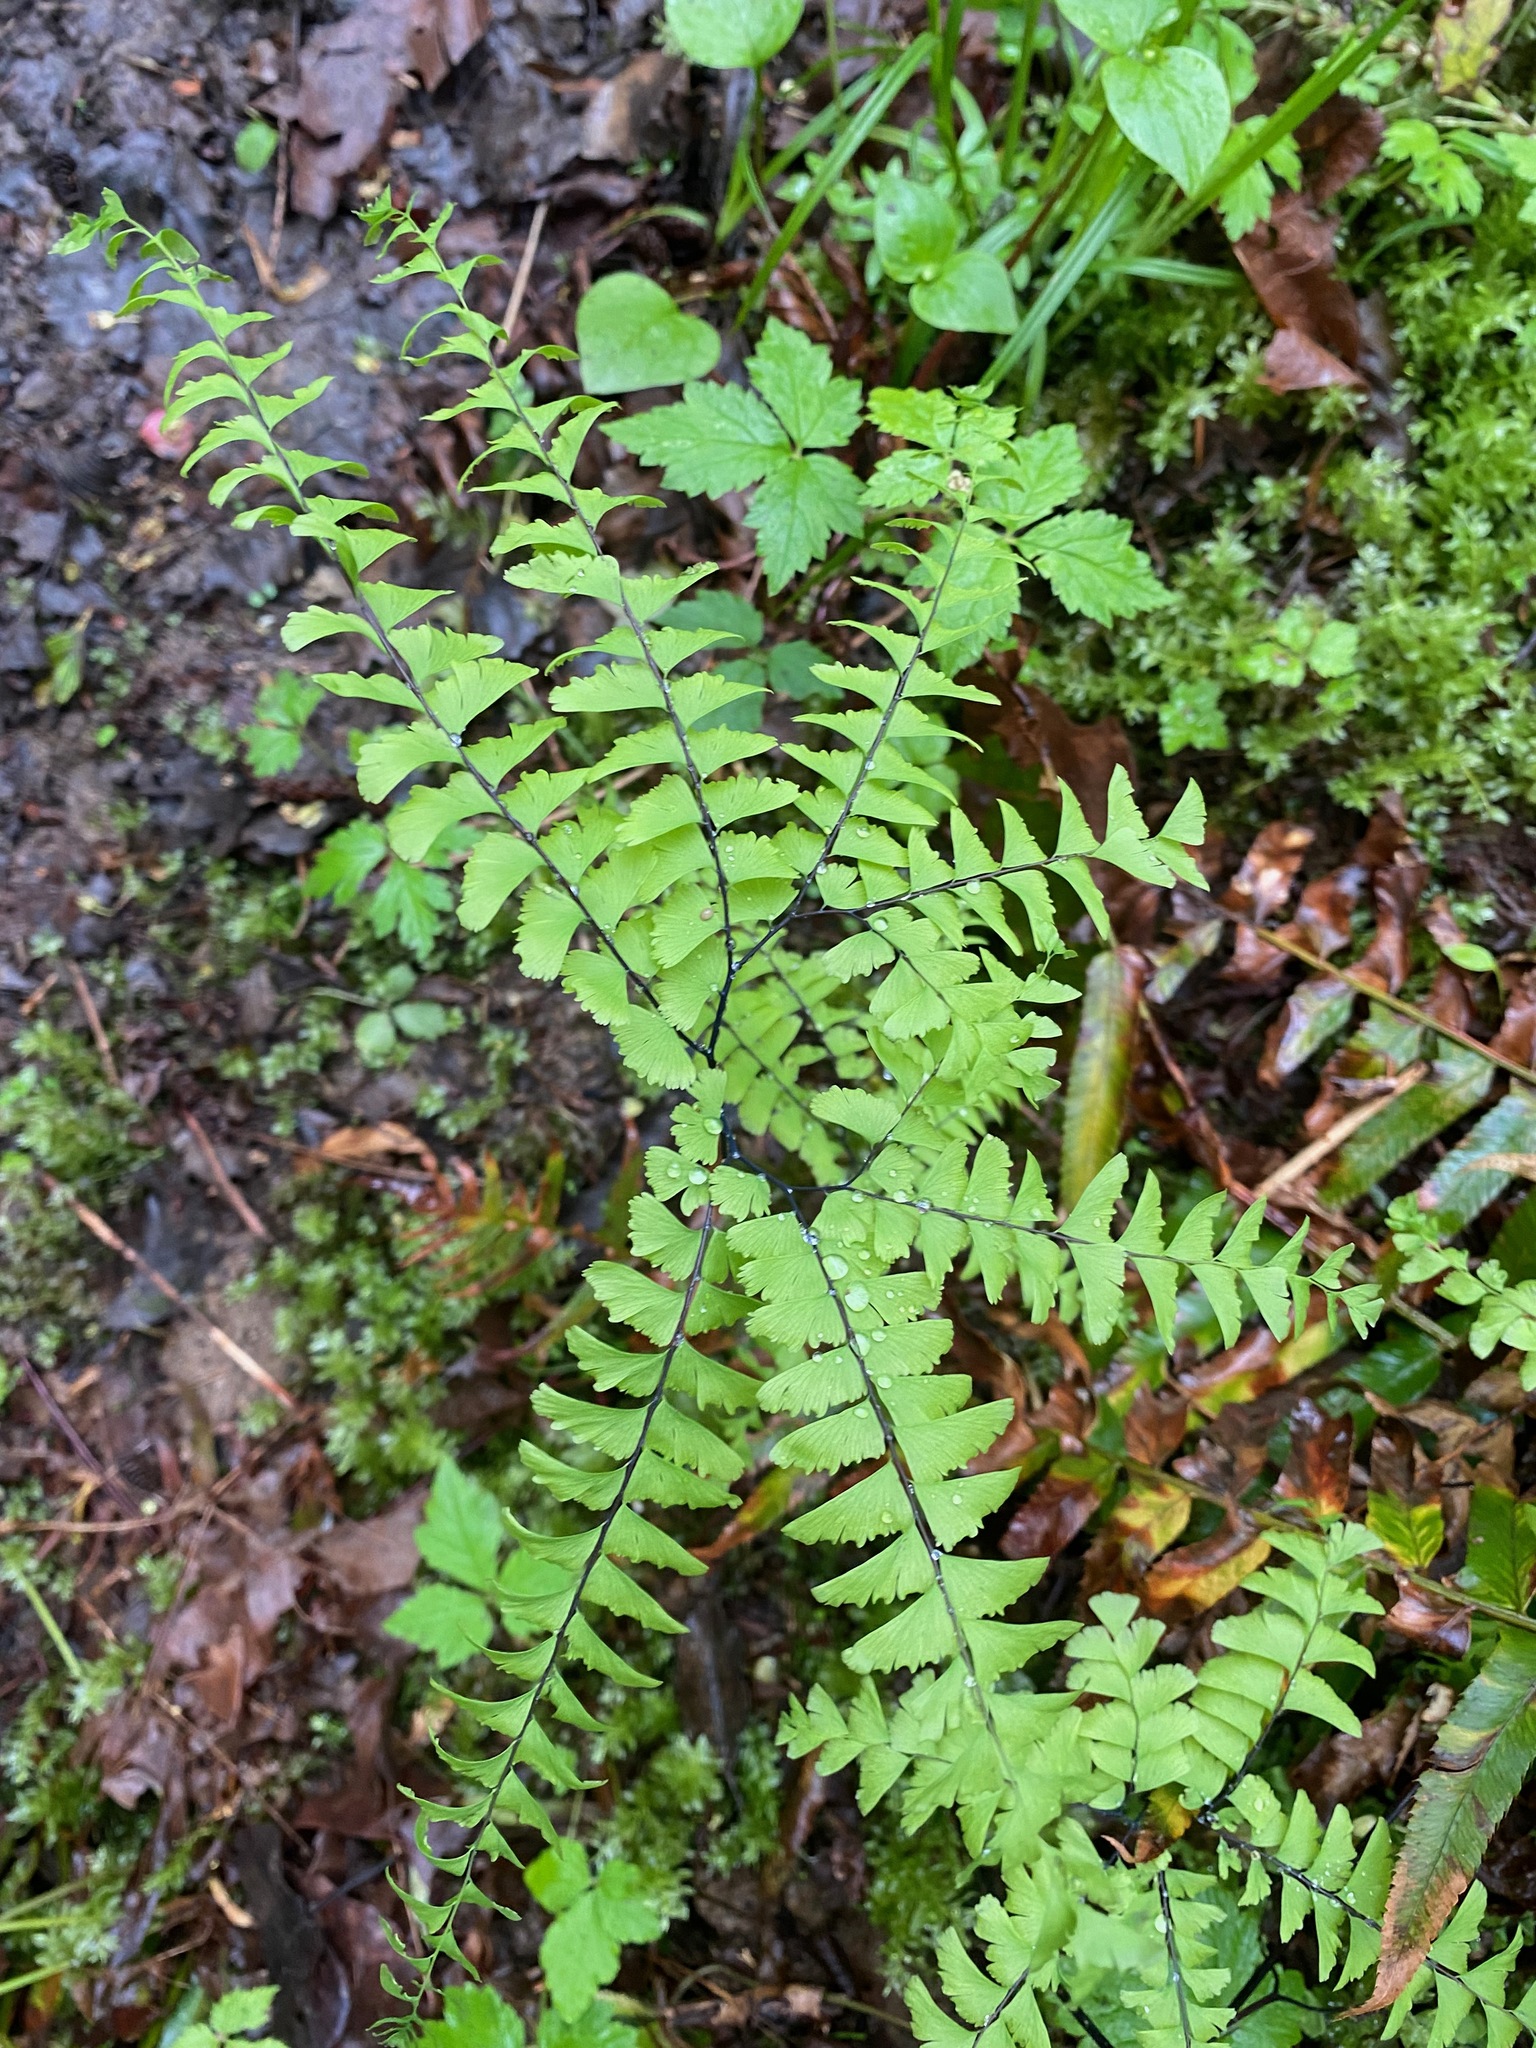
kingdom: Plantae
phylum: Tracheophyta
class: Polypodiopsida
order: Polypodiales
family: Pteridaceae
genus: Adiantum
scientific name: Adiantum aleuticum
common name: Aleutian maidenhair fern
